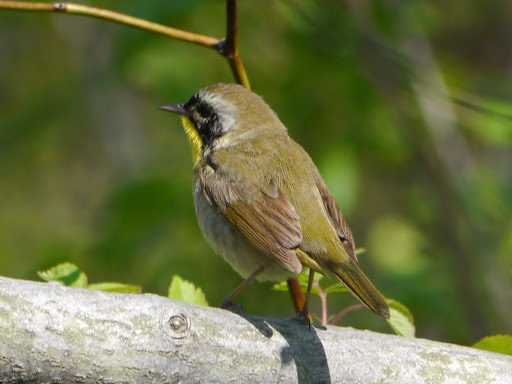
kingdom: Animalia
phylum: Chordata
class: Aves
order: Passeriformes
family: Parulidae
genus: Geothlypis
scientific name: Geothlypis trichas
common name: Common yellowthroat
